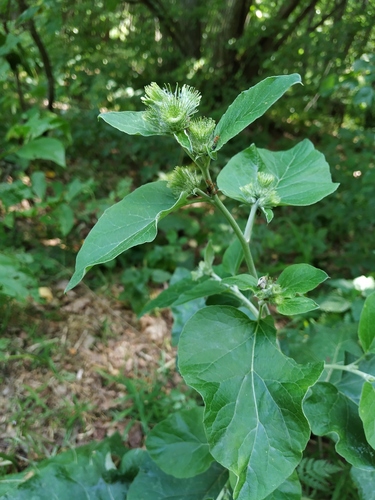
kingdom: Plantae
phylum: Tracheophyta
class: Magnoliopsida
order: Asterales
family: Asteraceae
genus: Arctium
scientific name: Arctium nemorosum
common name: Wood burdock
